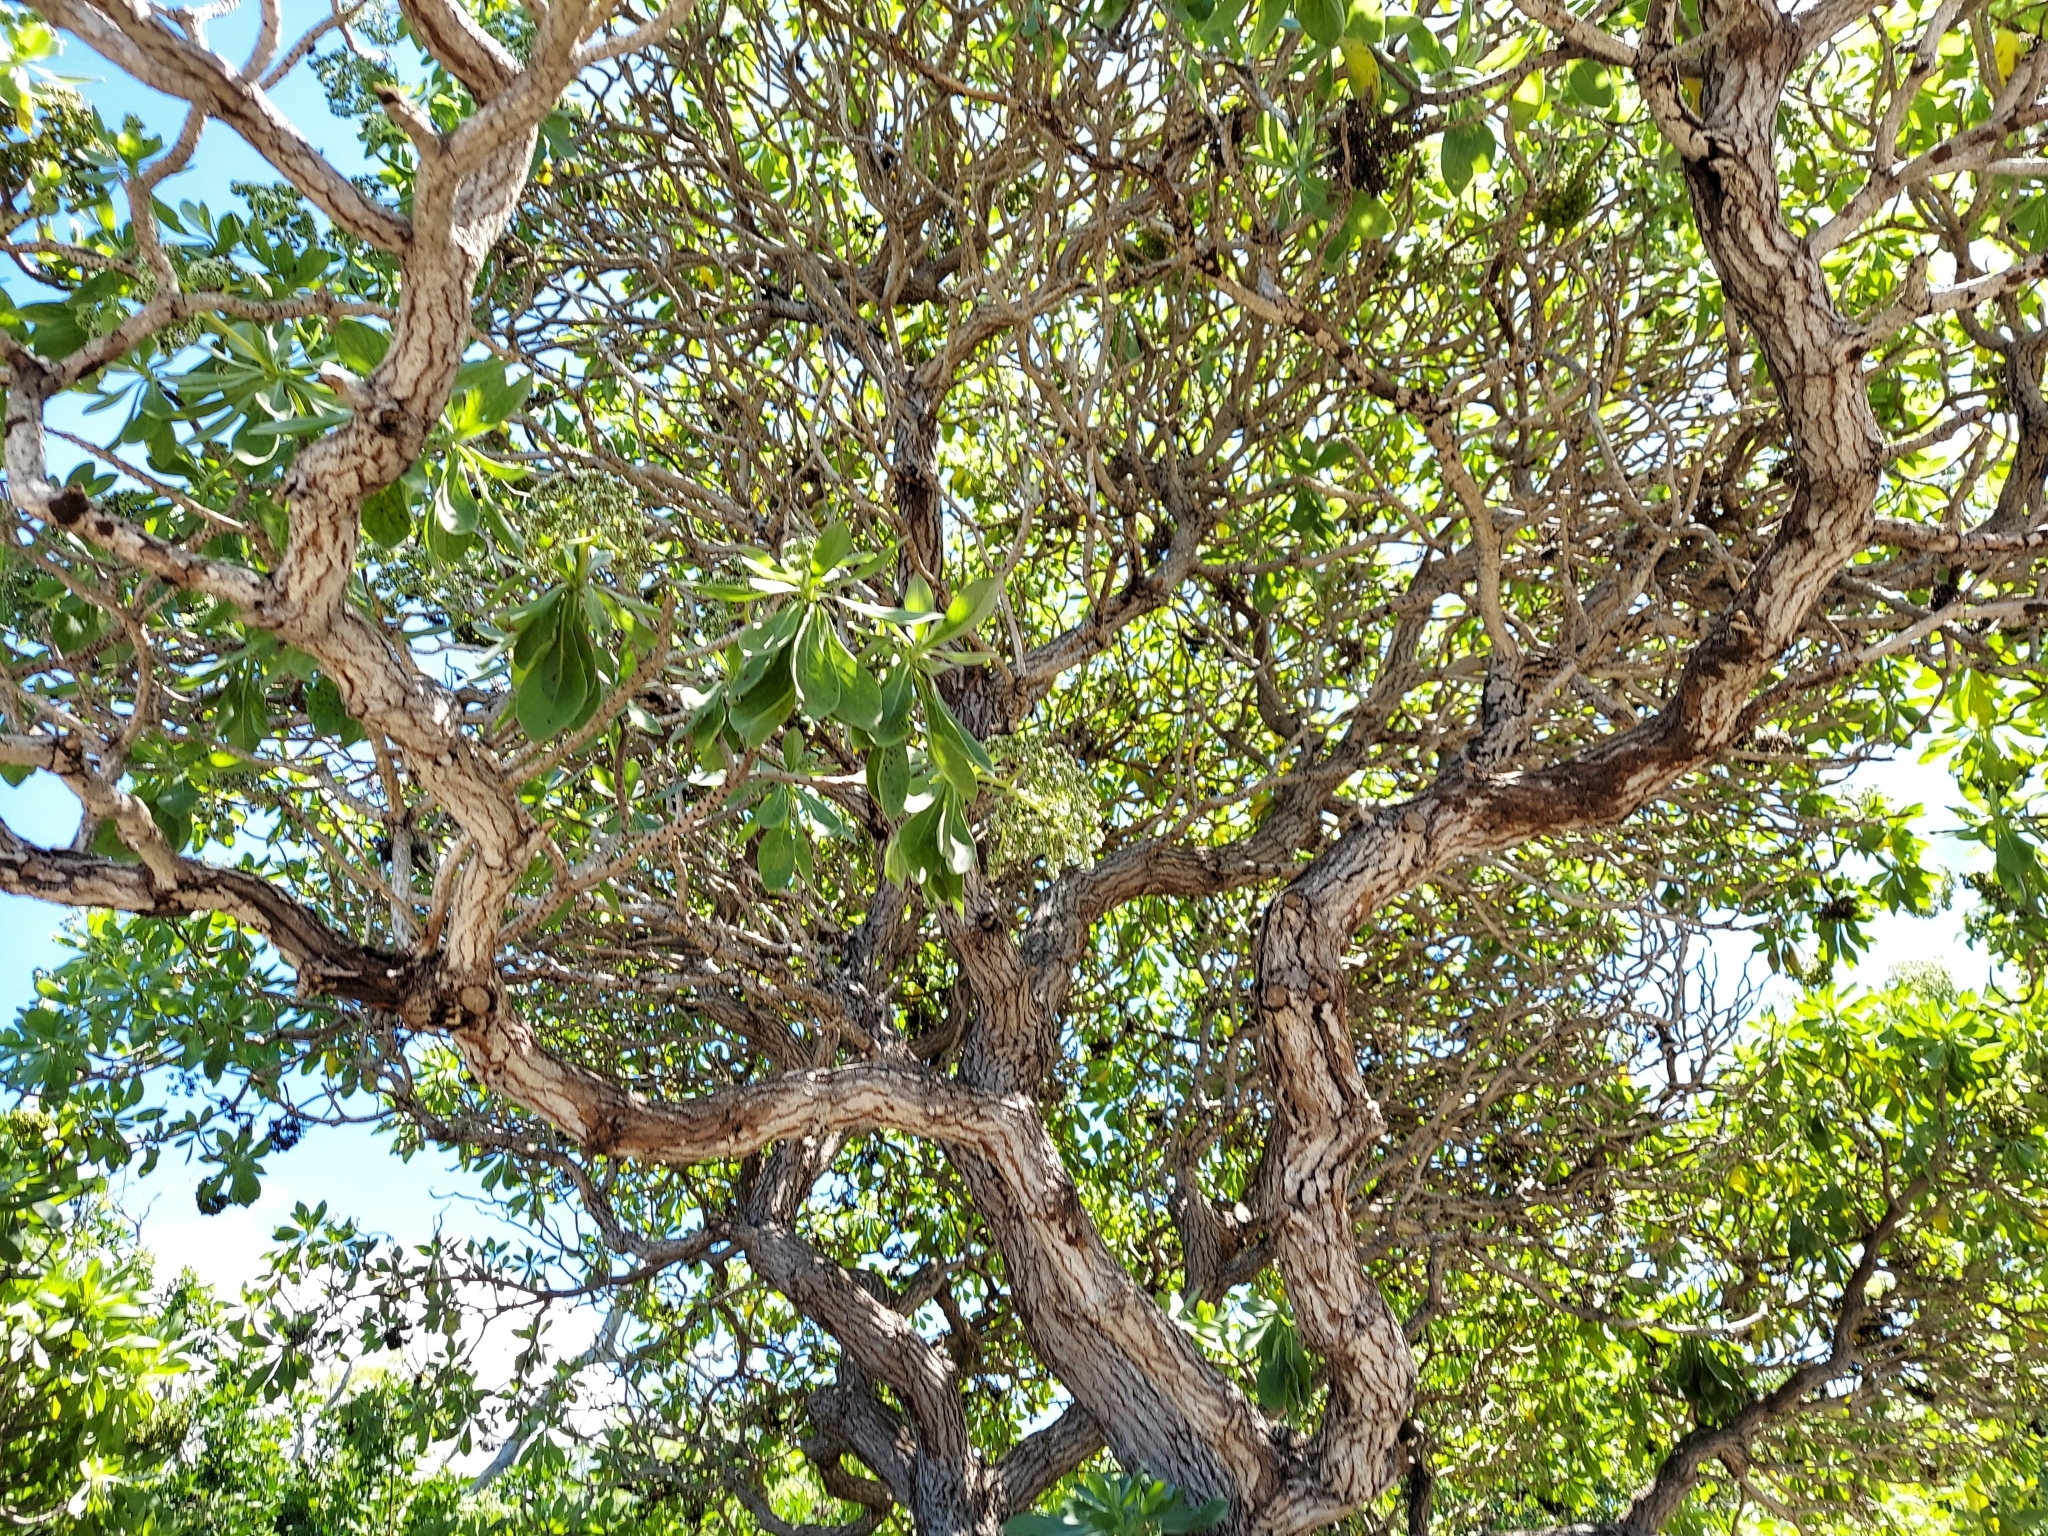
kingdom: Plantae
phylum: Tracheophyta
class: Magnoliopsida
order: Boraginales
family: Heliotropiaceae
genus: Heliotropium
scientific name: Heliotropium velutinum
